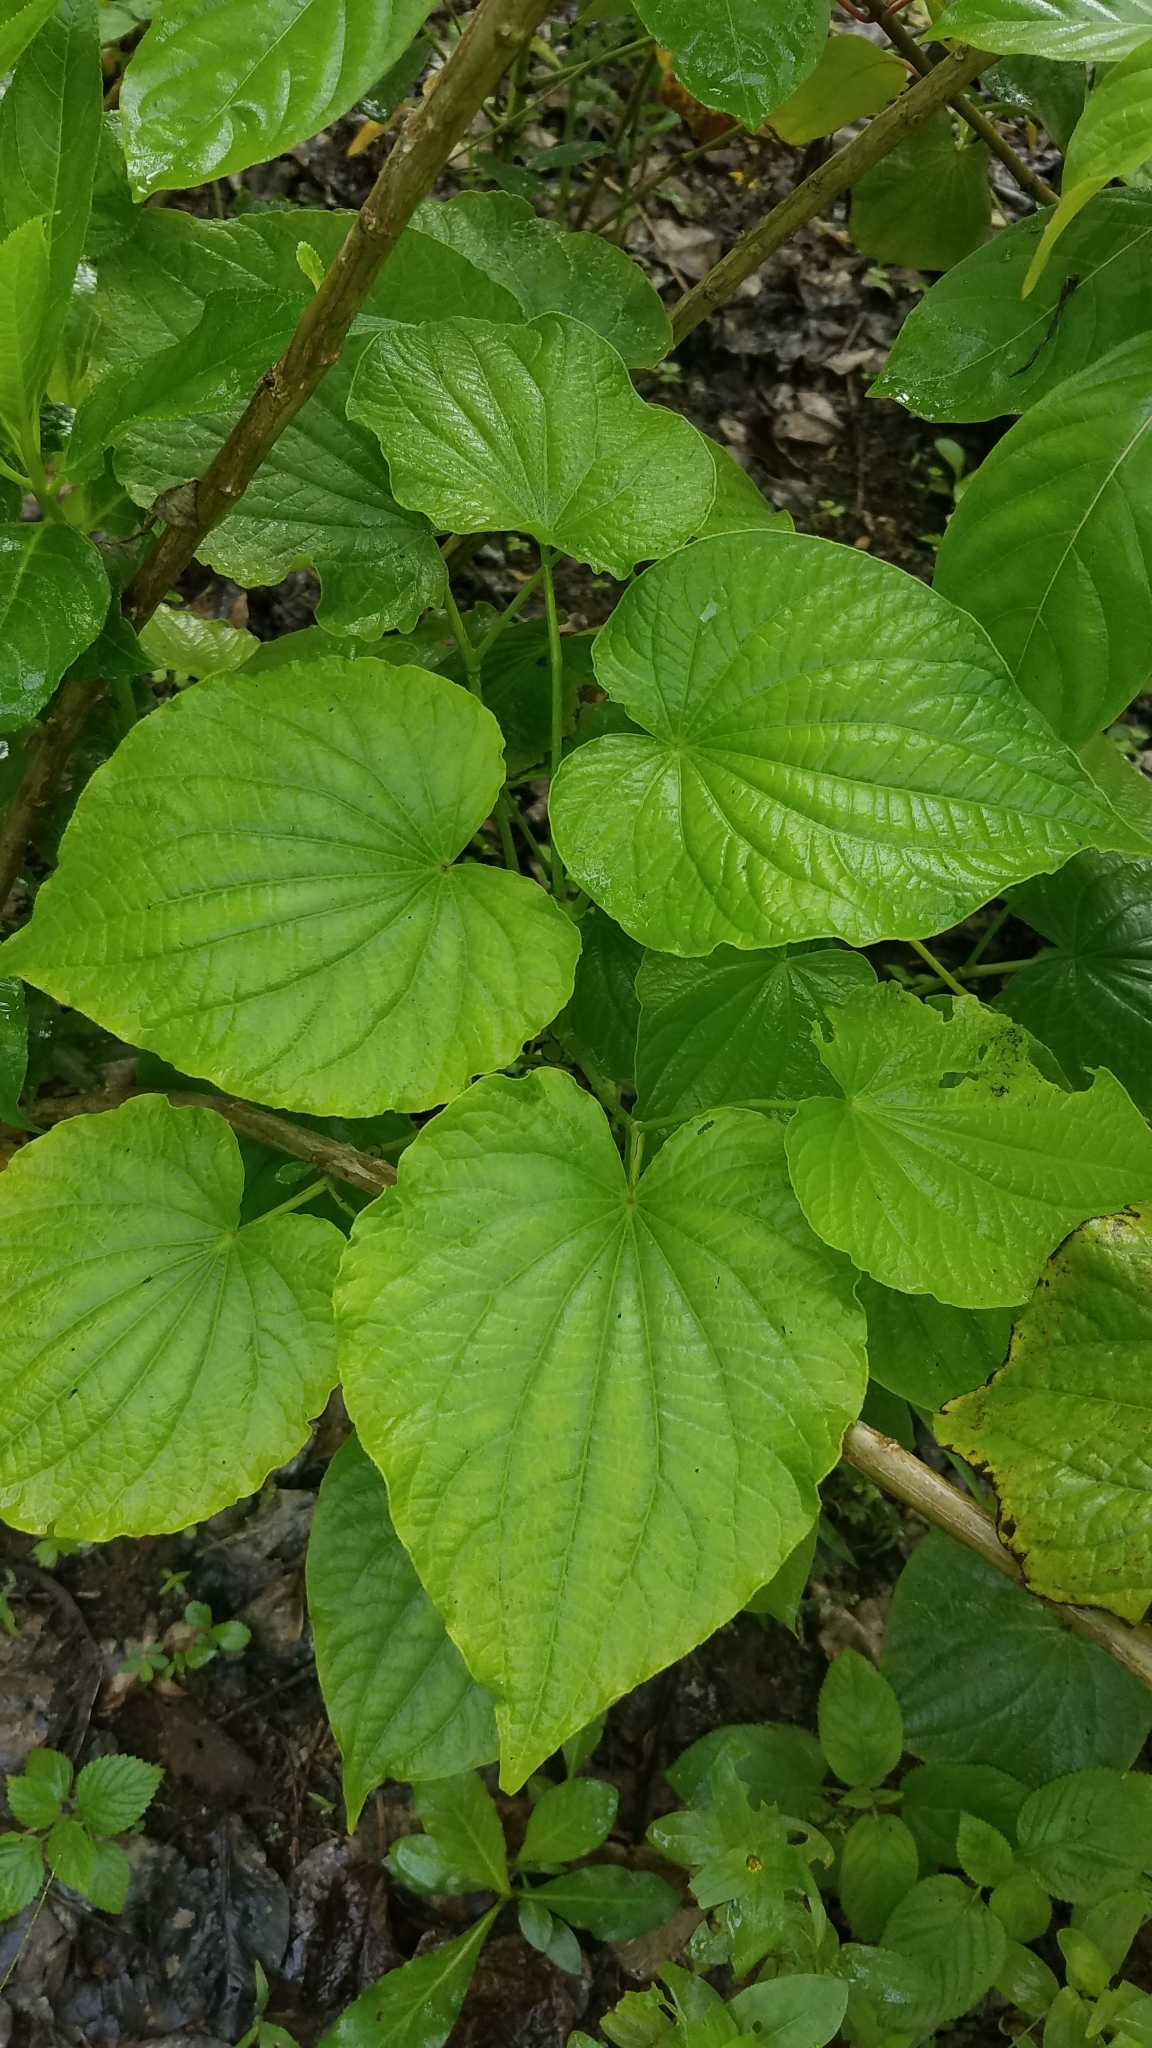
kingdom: Plantae
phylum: Tracheophyta
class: Magnoliopsida
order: Piperales
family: Piperaceae
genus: Piper
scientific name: Piper reticulatum
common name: Wild cane
